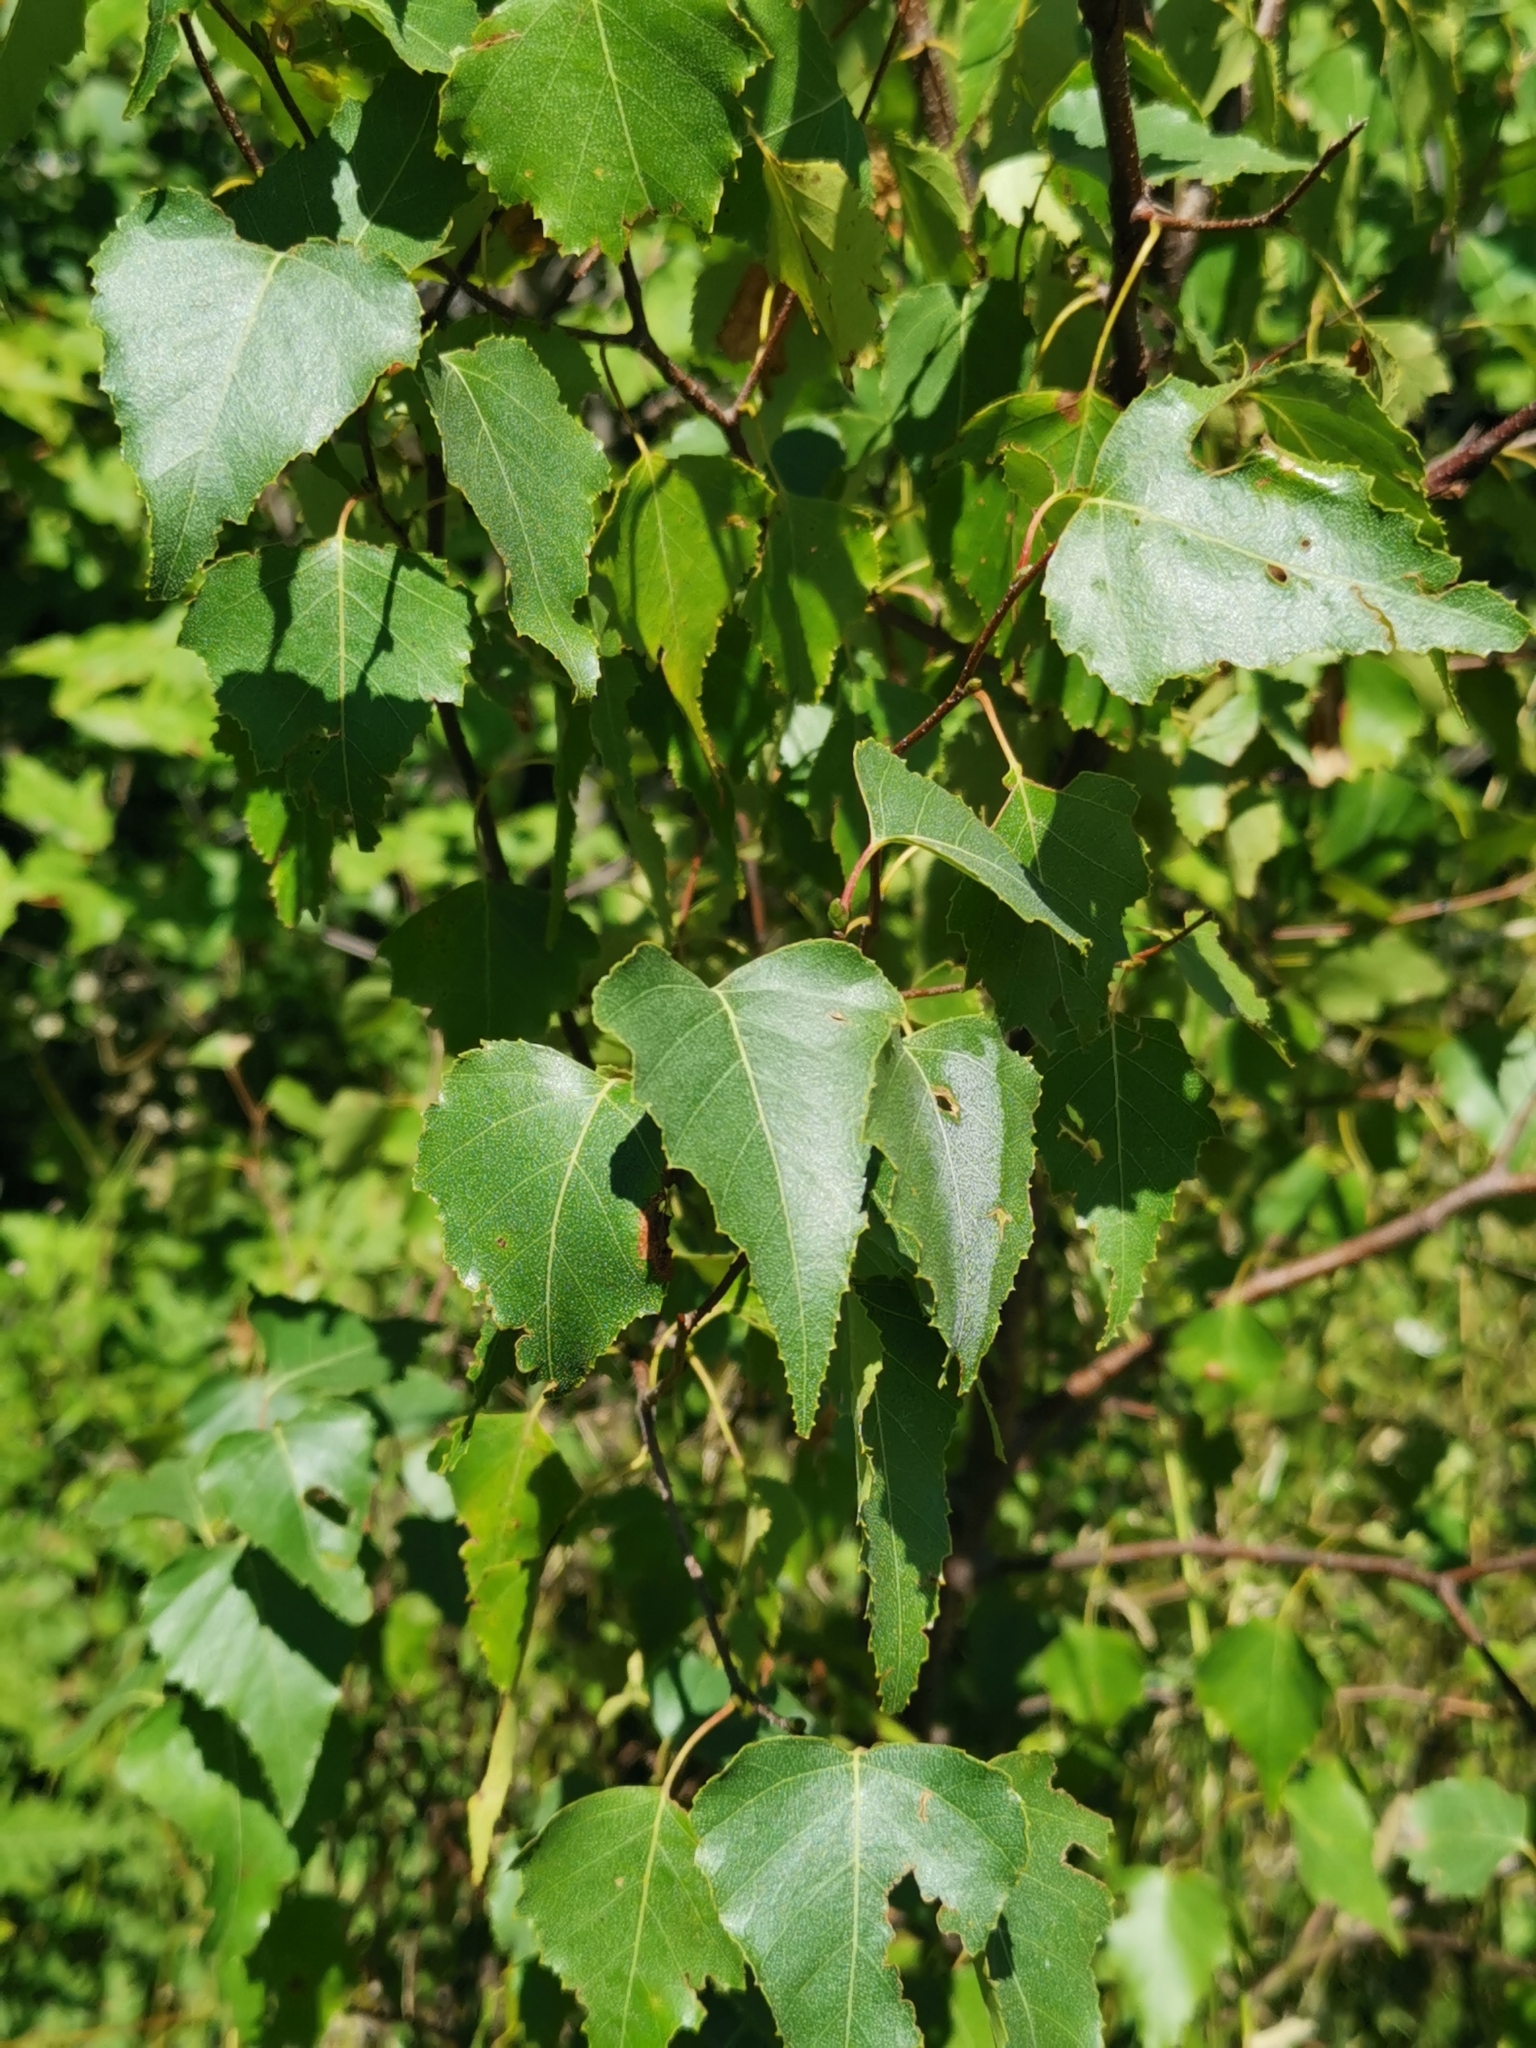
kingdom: Plantae
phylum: Tracheophyta
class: Magnoliopsida
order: Fagales
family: Betulaceae
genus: Betula
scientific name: Betula populifolia
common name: Fire birch
